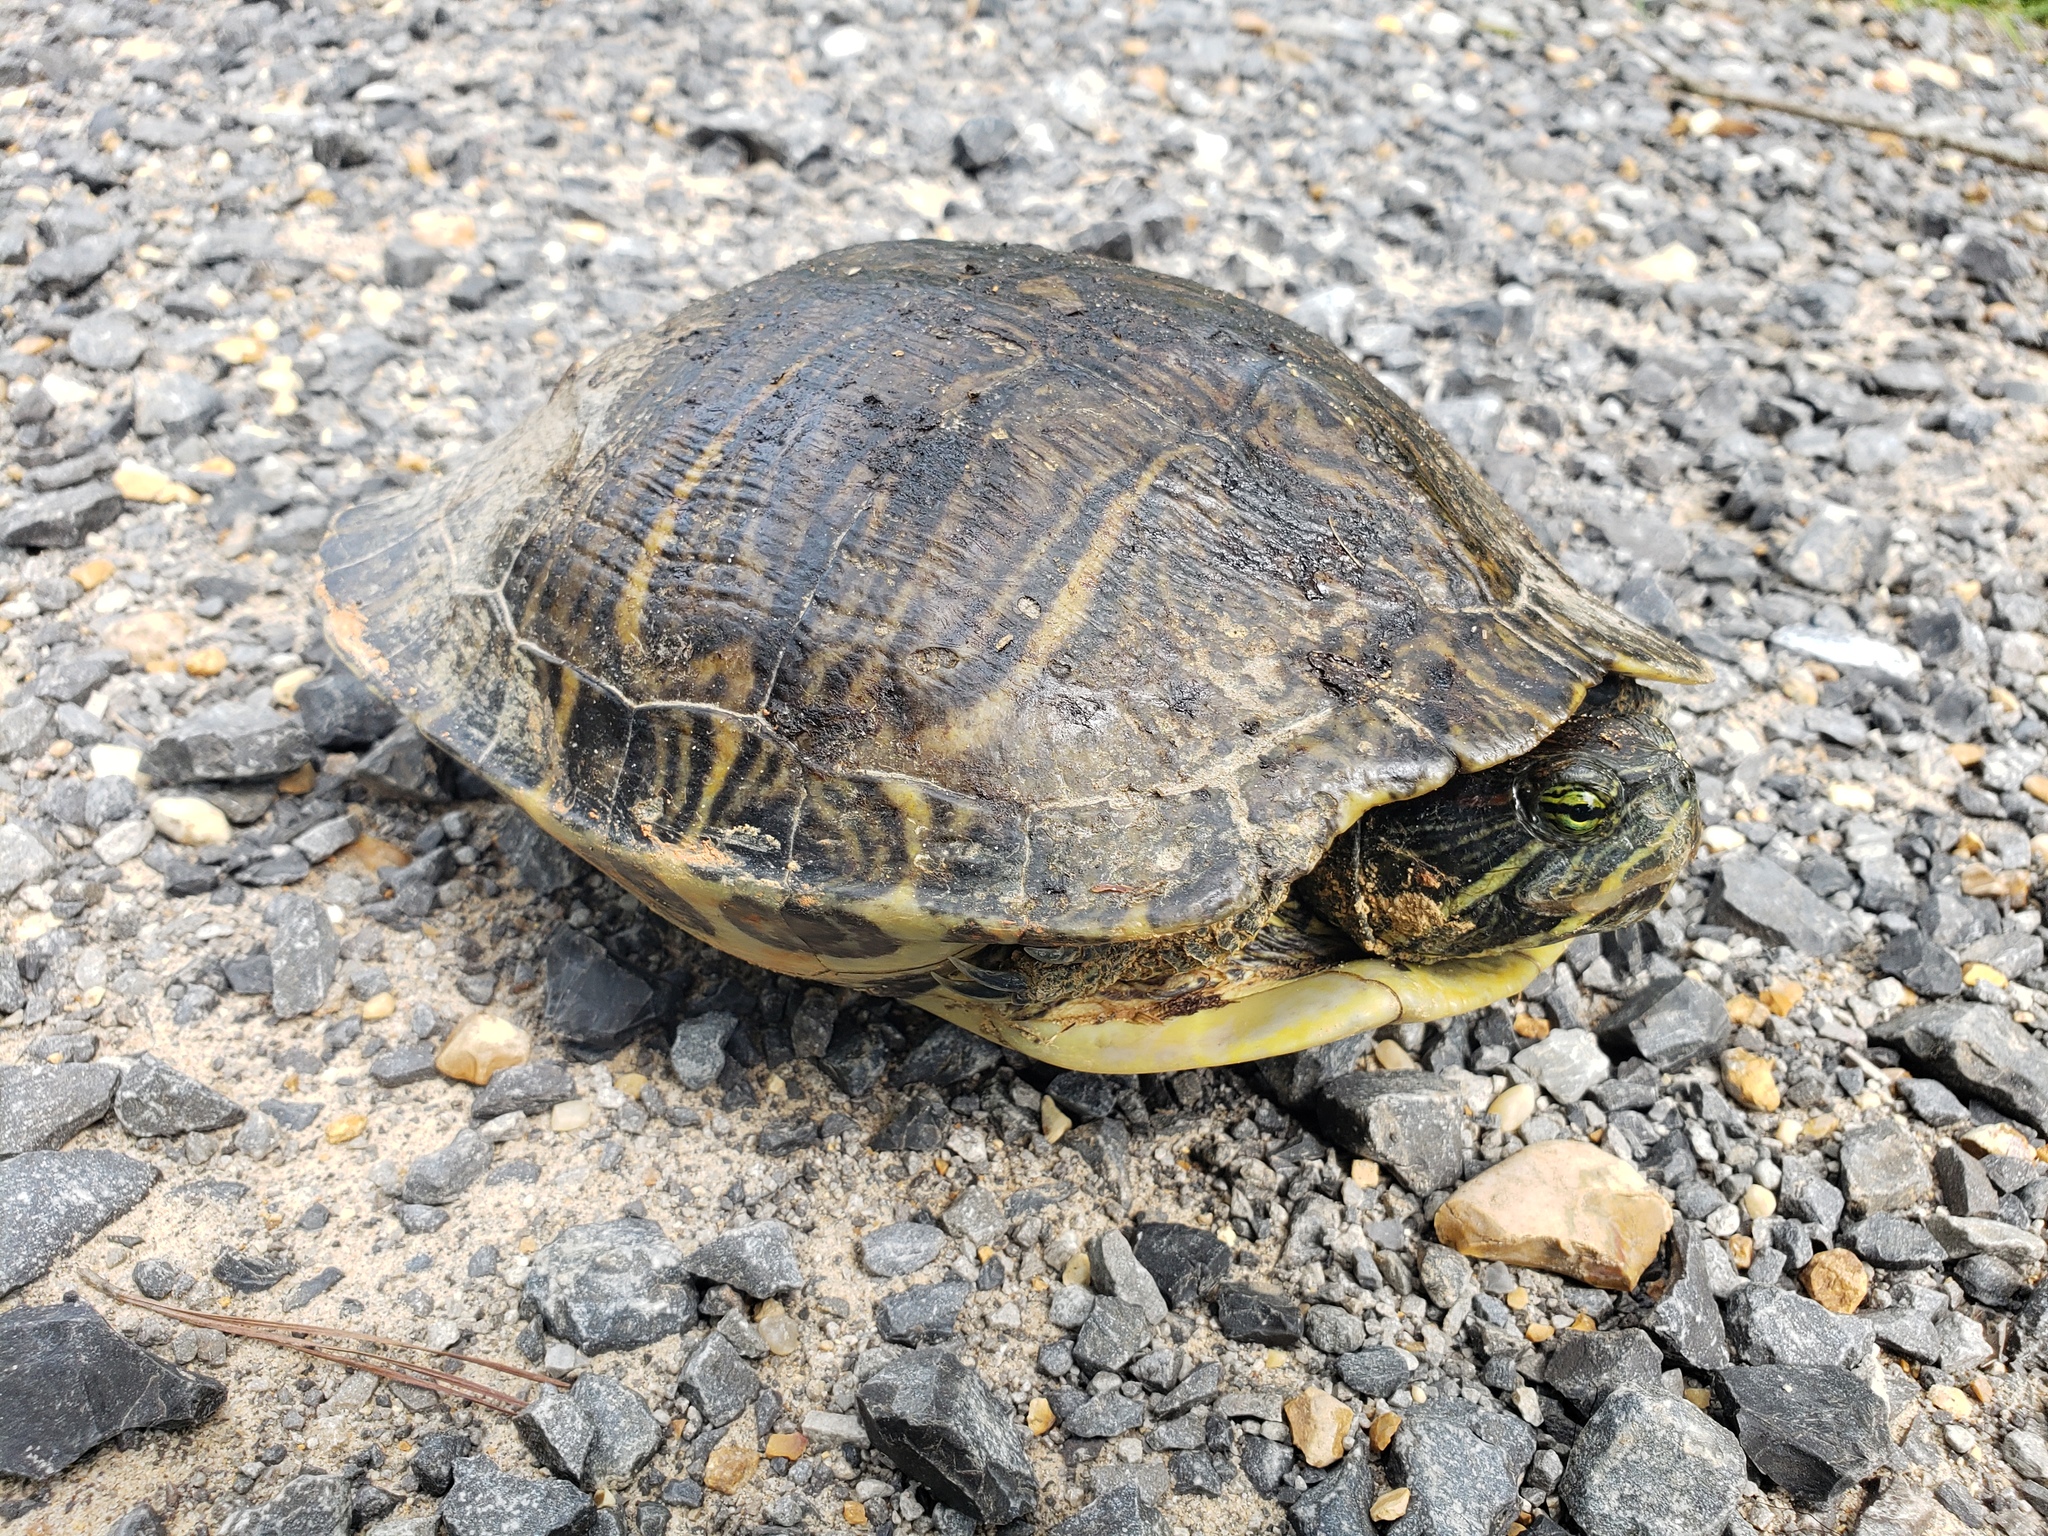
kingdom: Animalia
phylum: Chordata
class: Testudines
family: Emydidae
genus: Trachemys
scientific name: Trachemys scripta
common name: Slider
